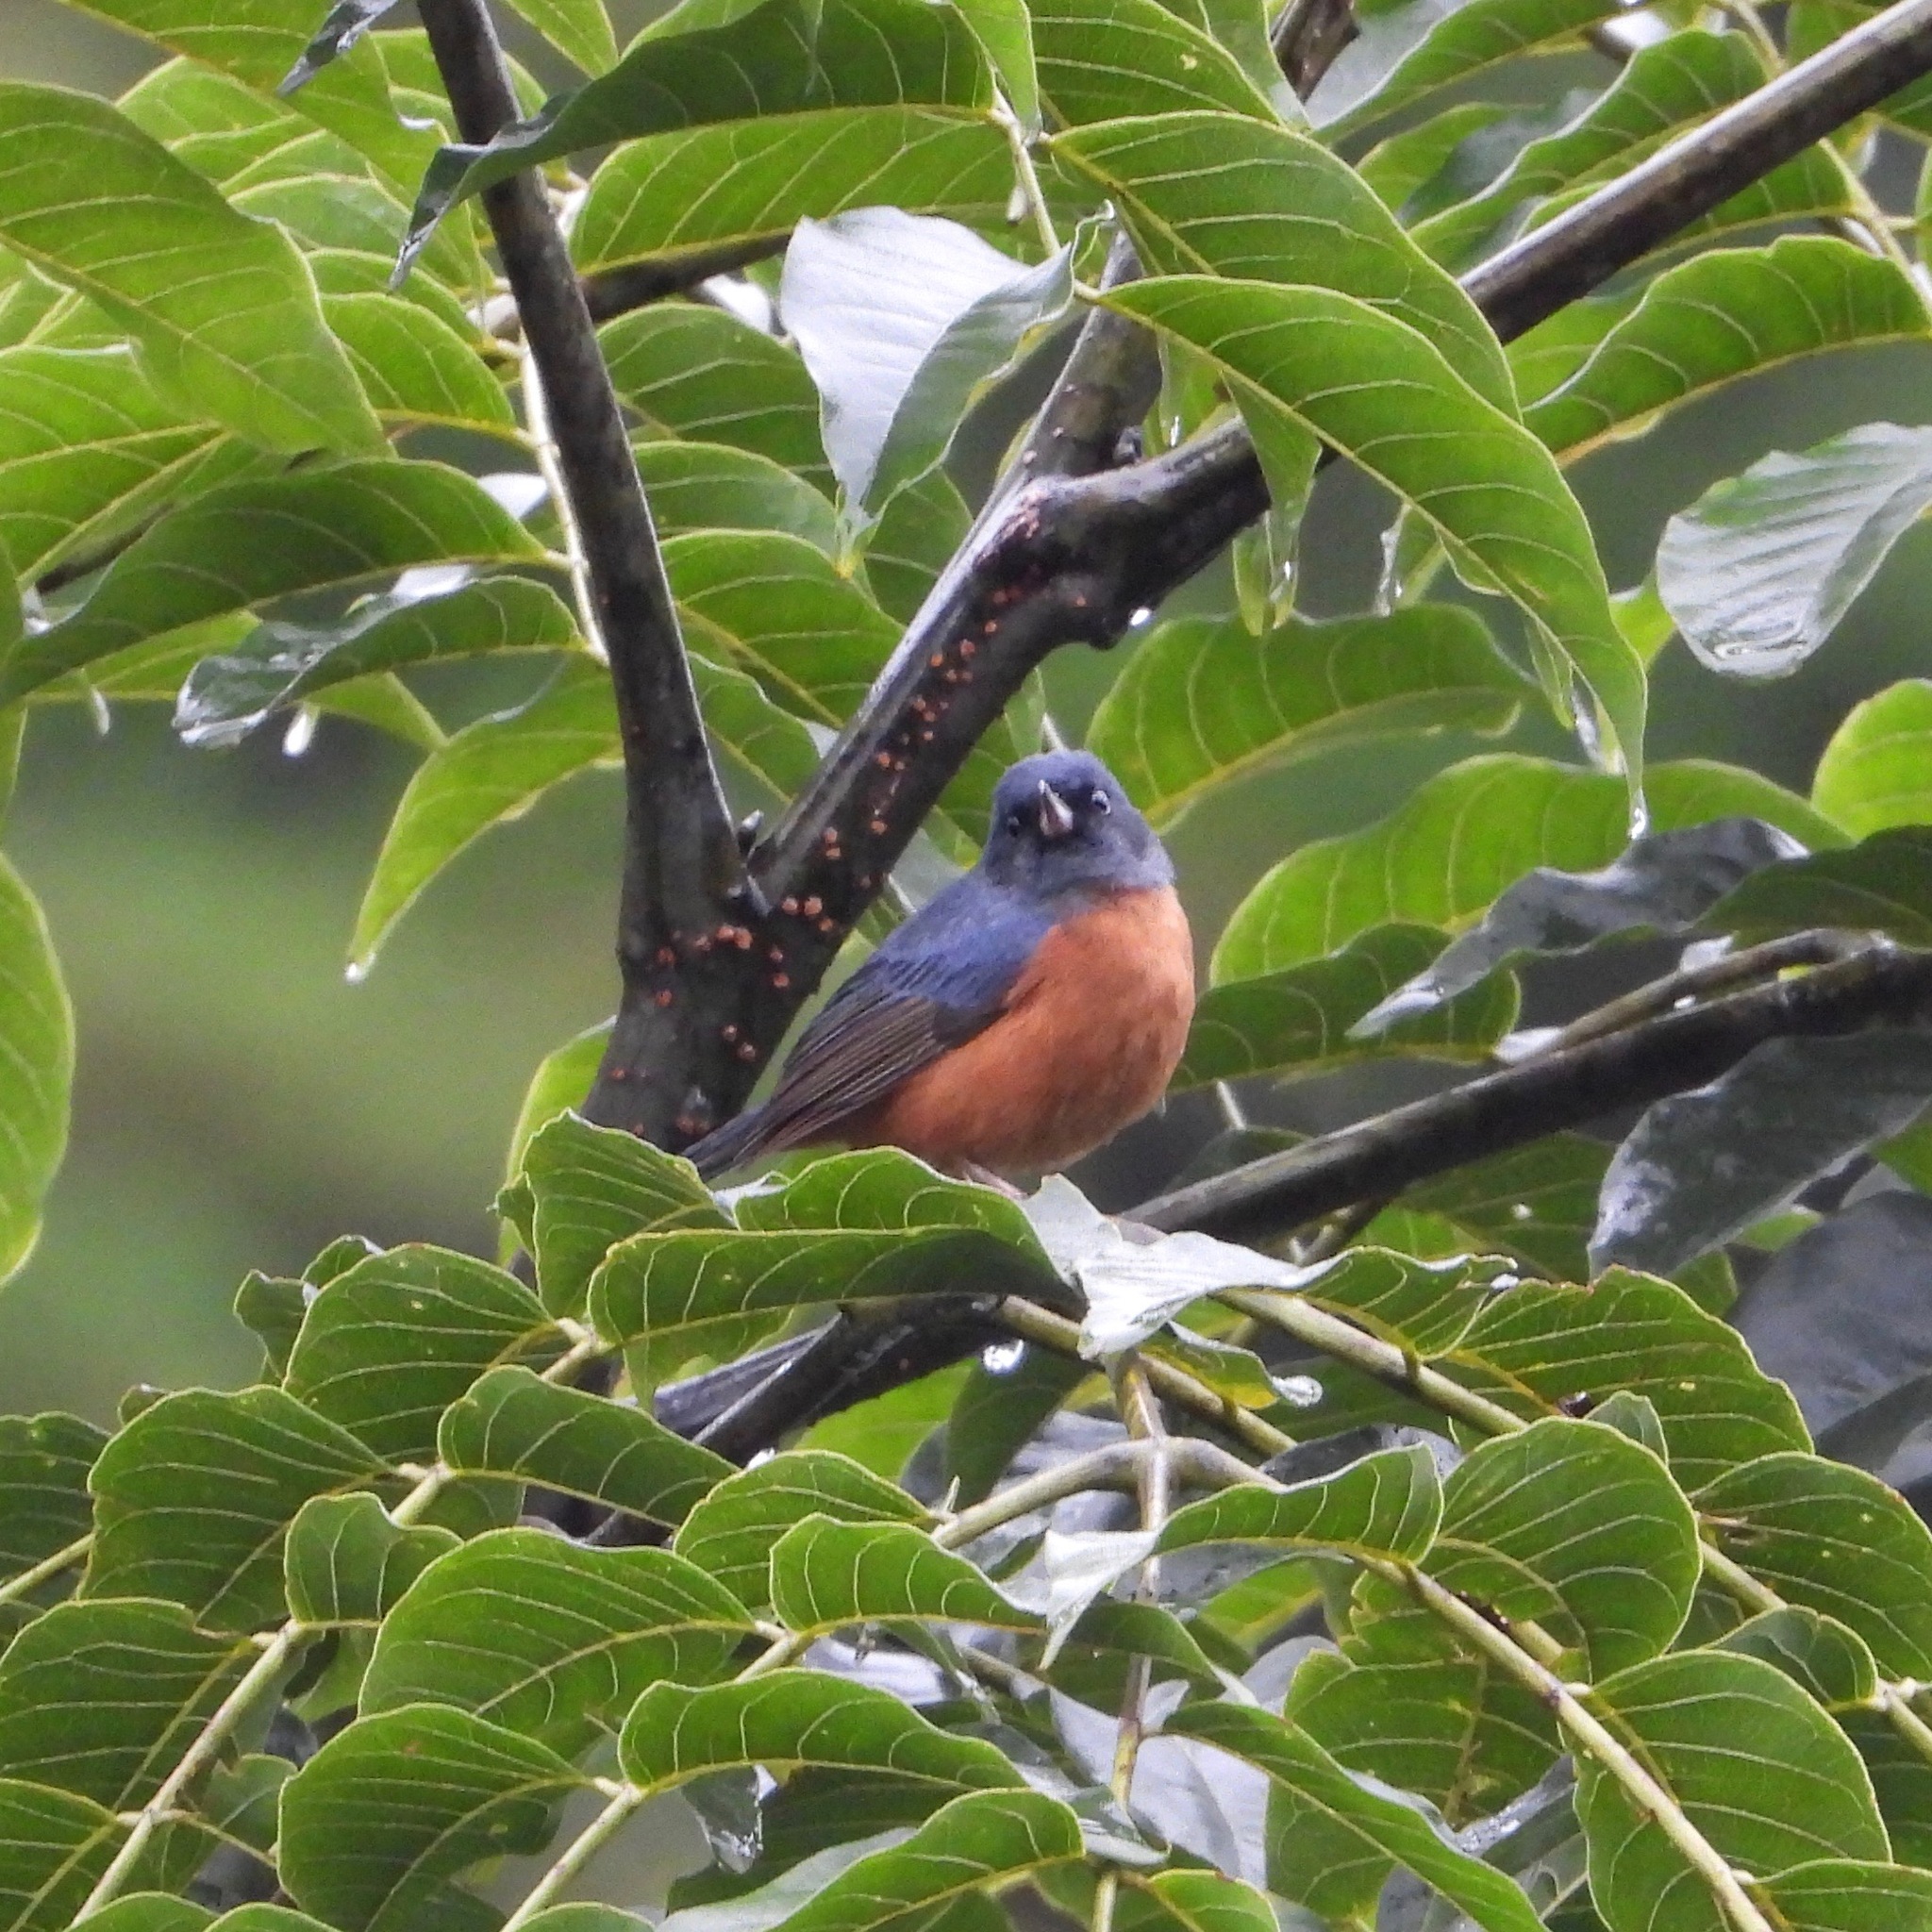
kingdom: Animalia
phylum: Chordata
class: Aves
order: Passeriformes
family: Thraupidae
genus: Diglossa
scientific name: Diglossa baritula
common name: Cinnamon-bellied flowerpiercer
